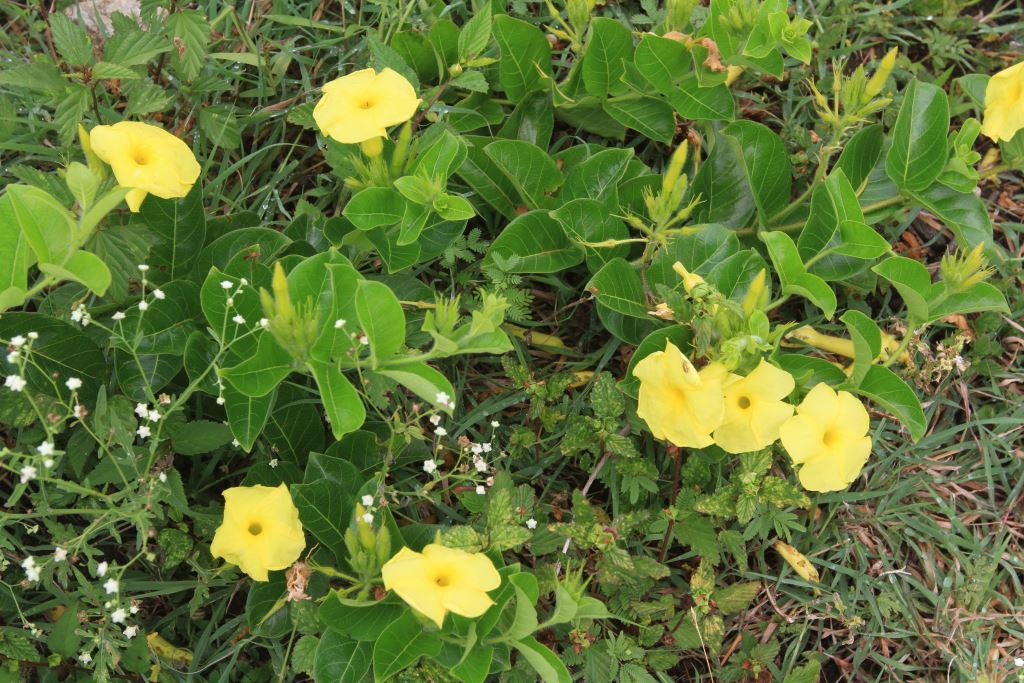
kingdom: Plantae
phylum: Tracheophyta
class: Magnoliopsida
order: Gentianales
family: Apocynaceae
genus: Pentalinon
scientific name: Pentalinon luteum
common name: Licebush
